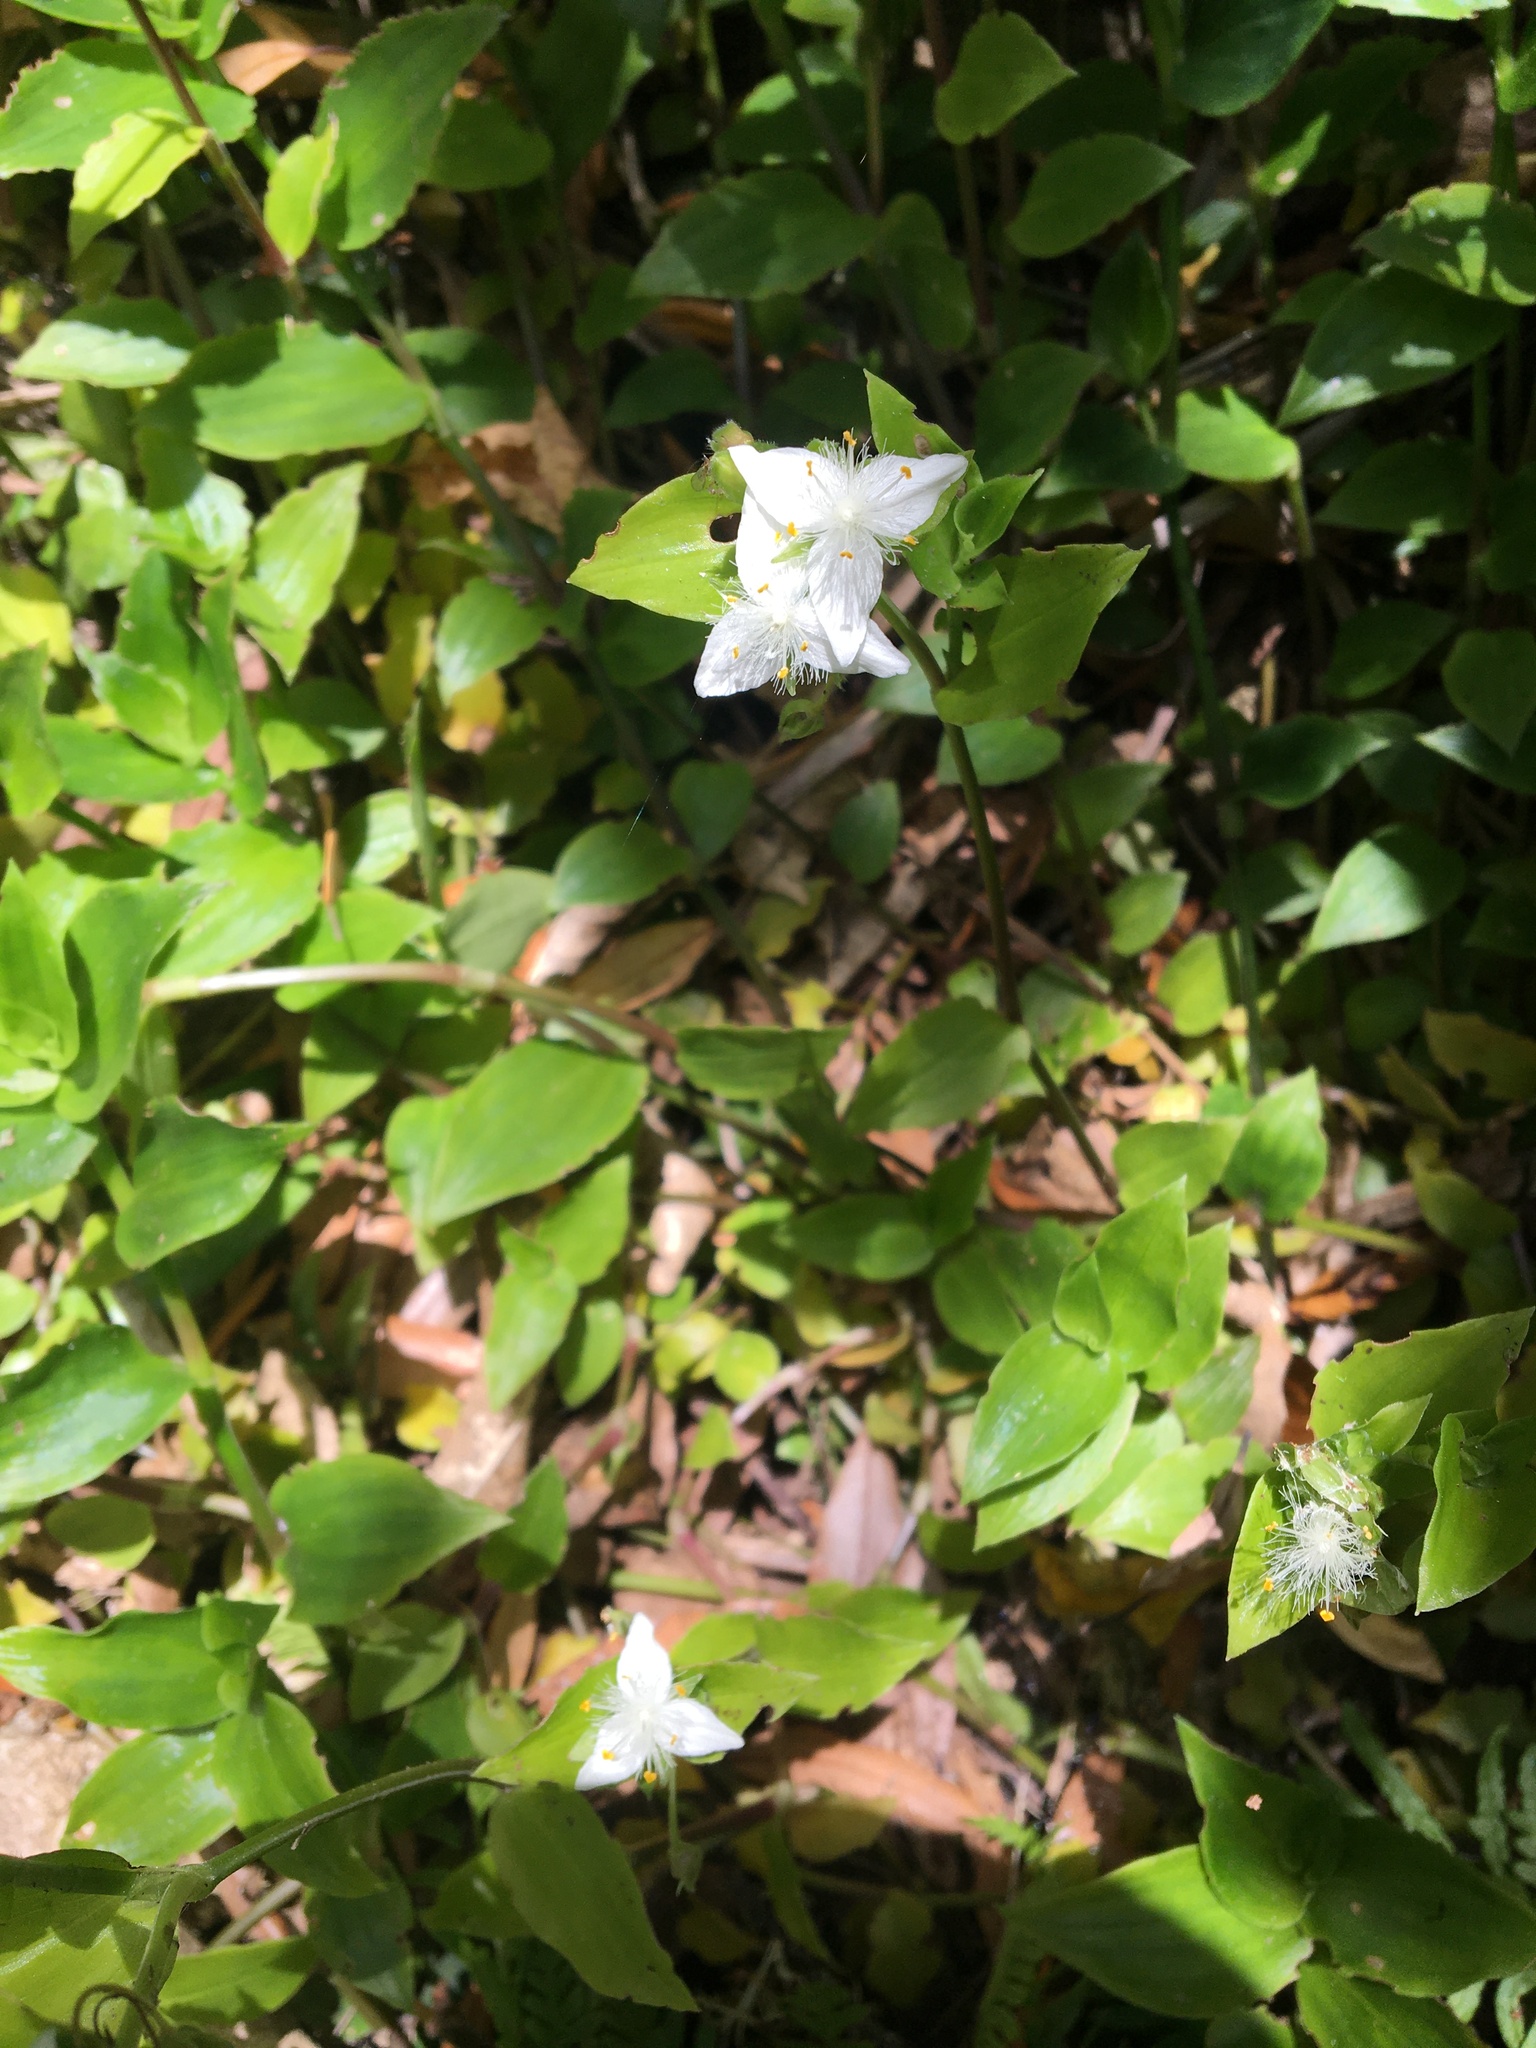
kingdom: Plantae
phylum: Tracheophyta
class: Liliopsida
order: Commelinales
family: Commelinaceae
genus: Tradescantia
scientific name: Tradescantia fluminensis
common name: Wandering-jew
